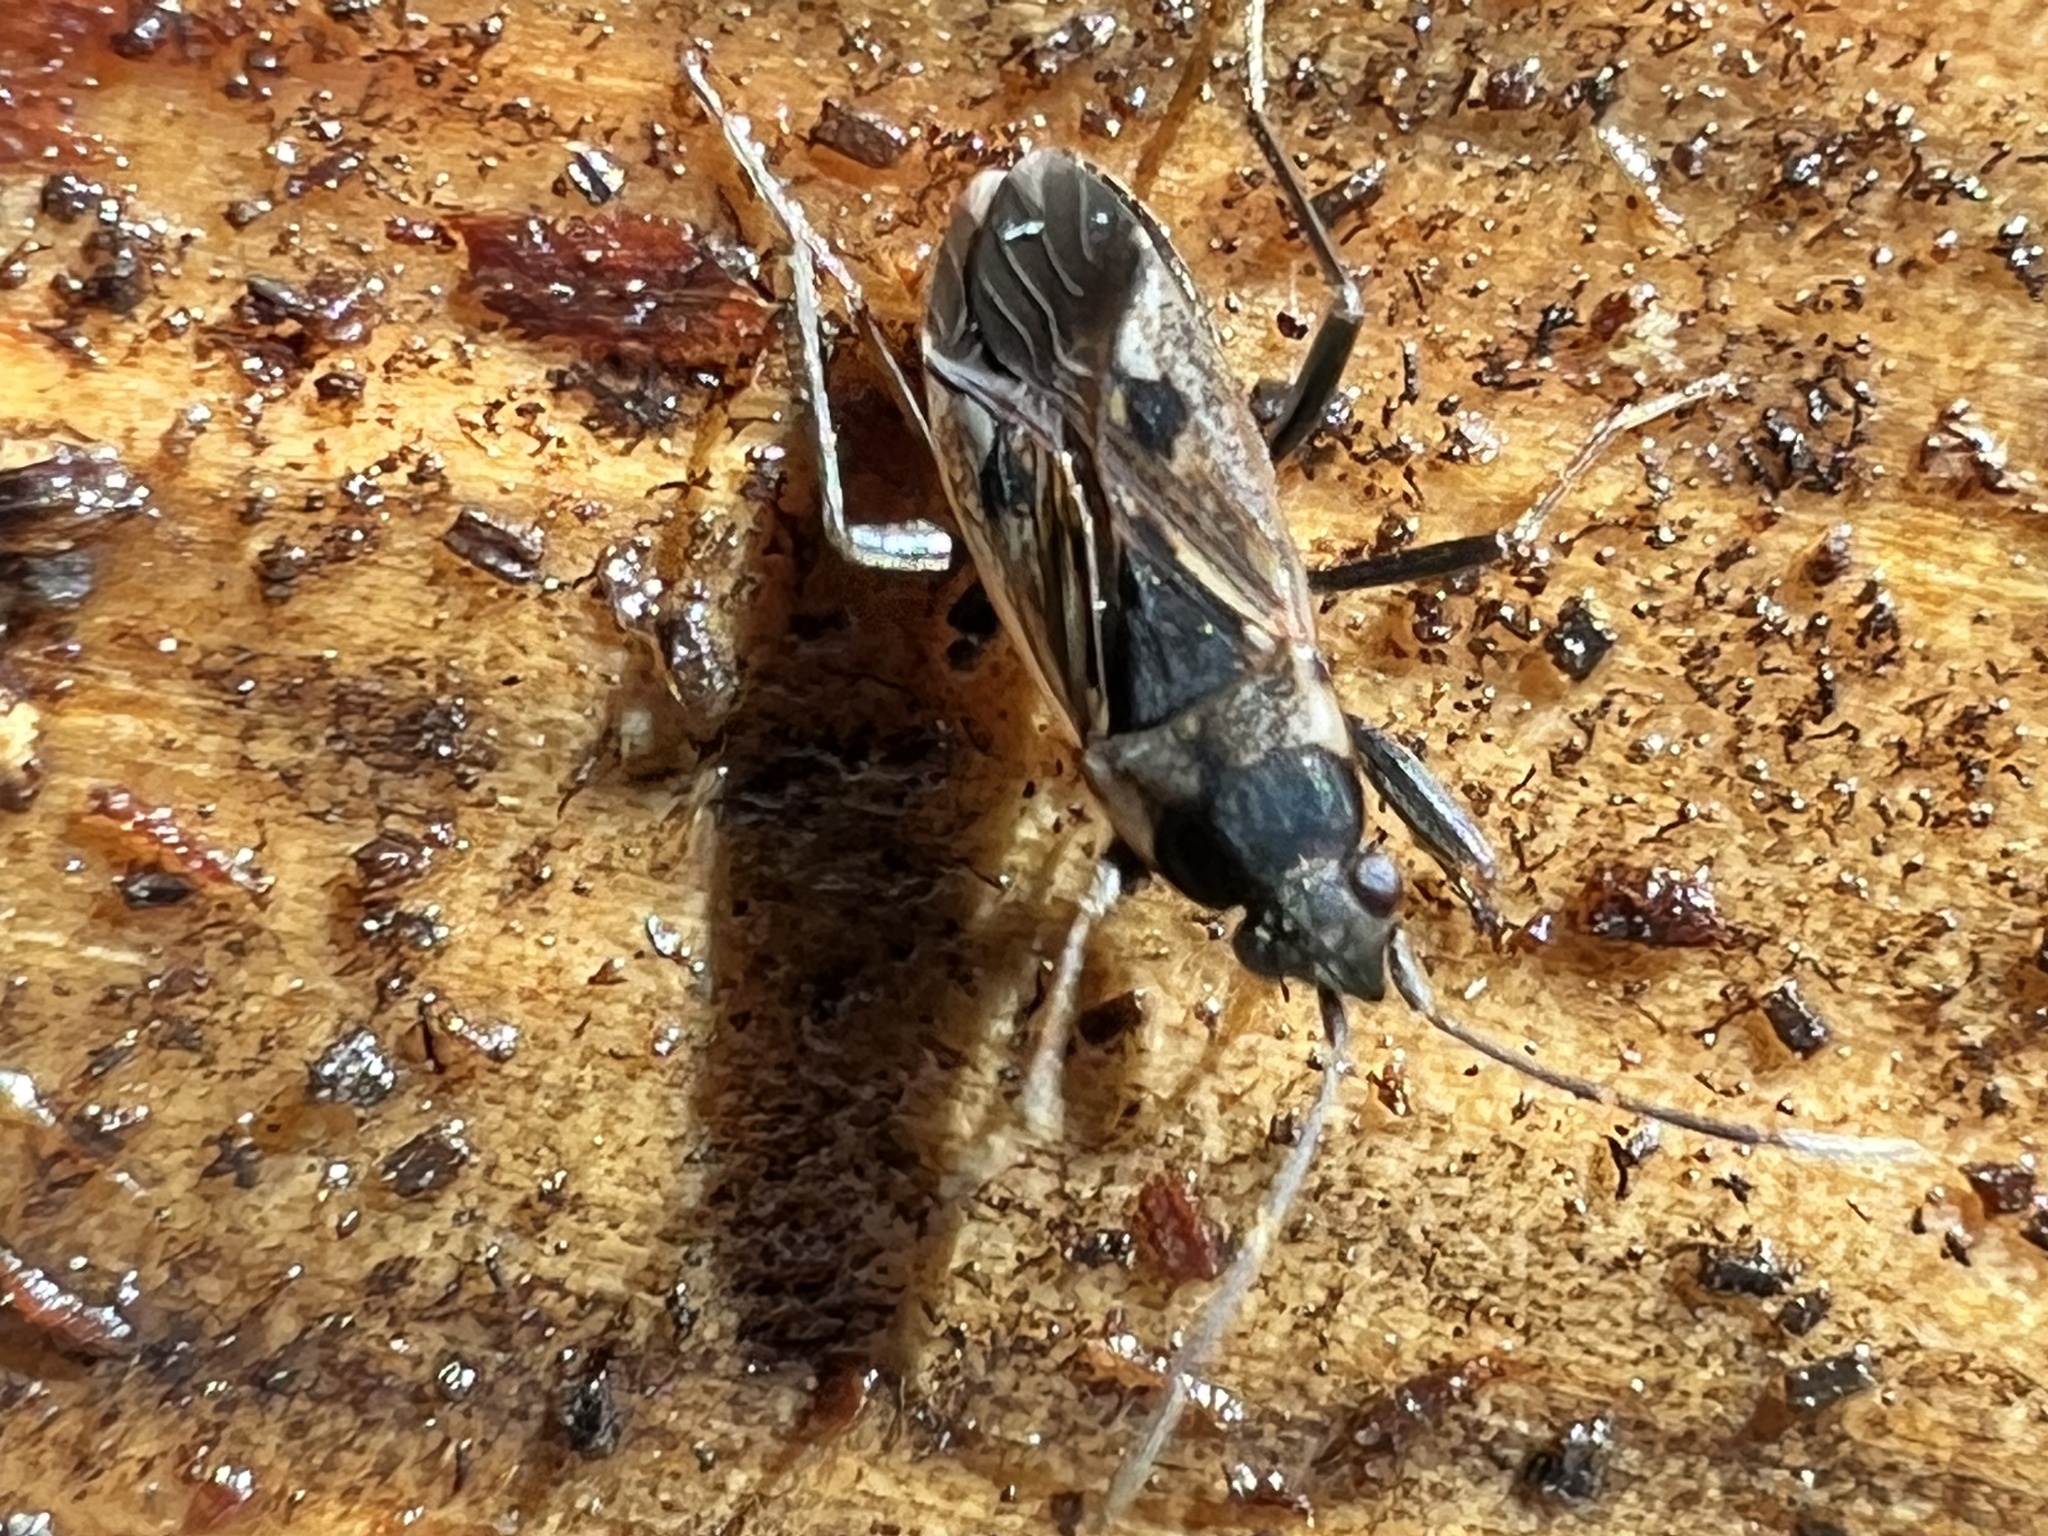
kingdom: Animalia
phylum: Arthropoda
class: Insecta
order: Hemiptera
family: Rhyparochromidae
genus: Rhyparochromus
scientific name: Rhyparochromus vulgaris
